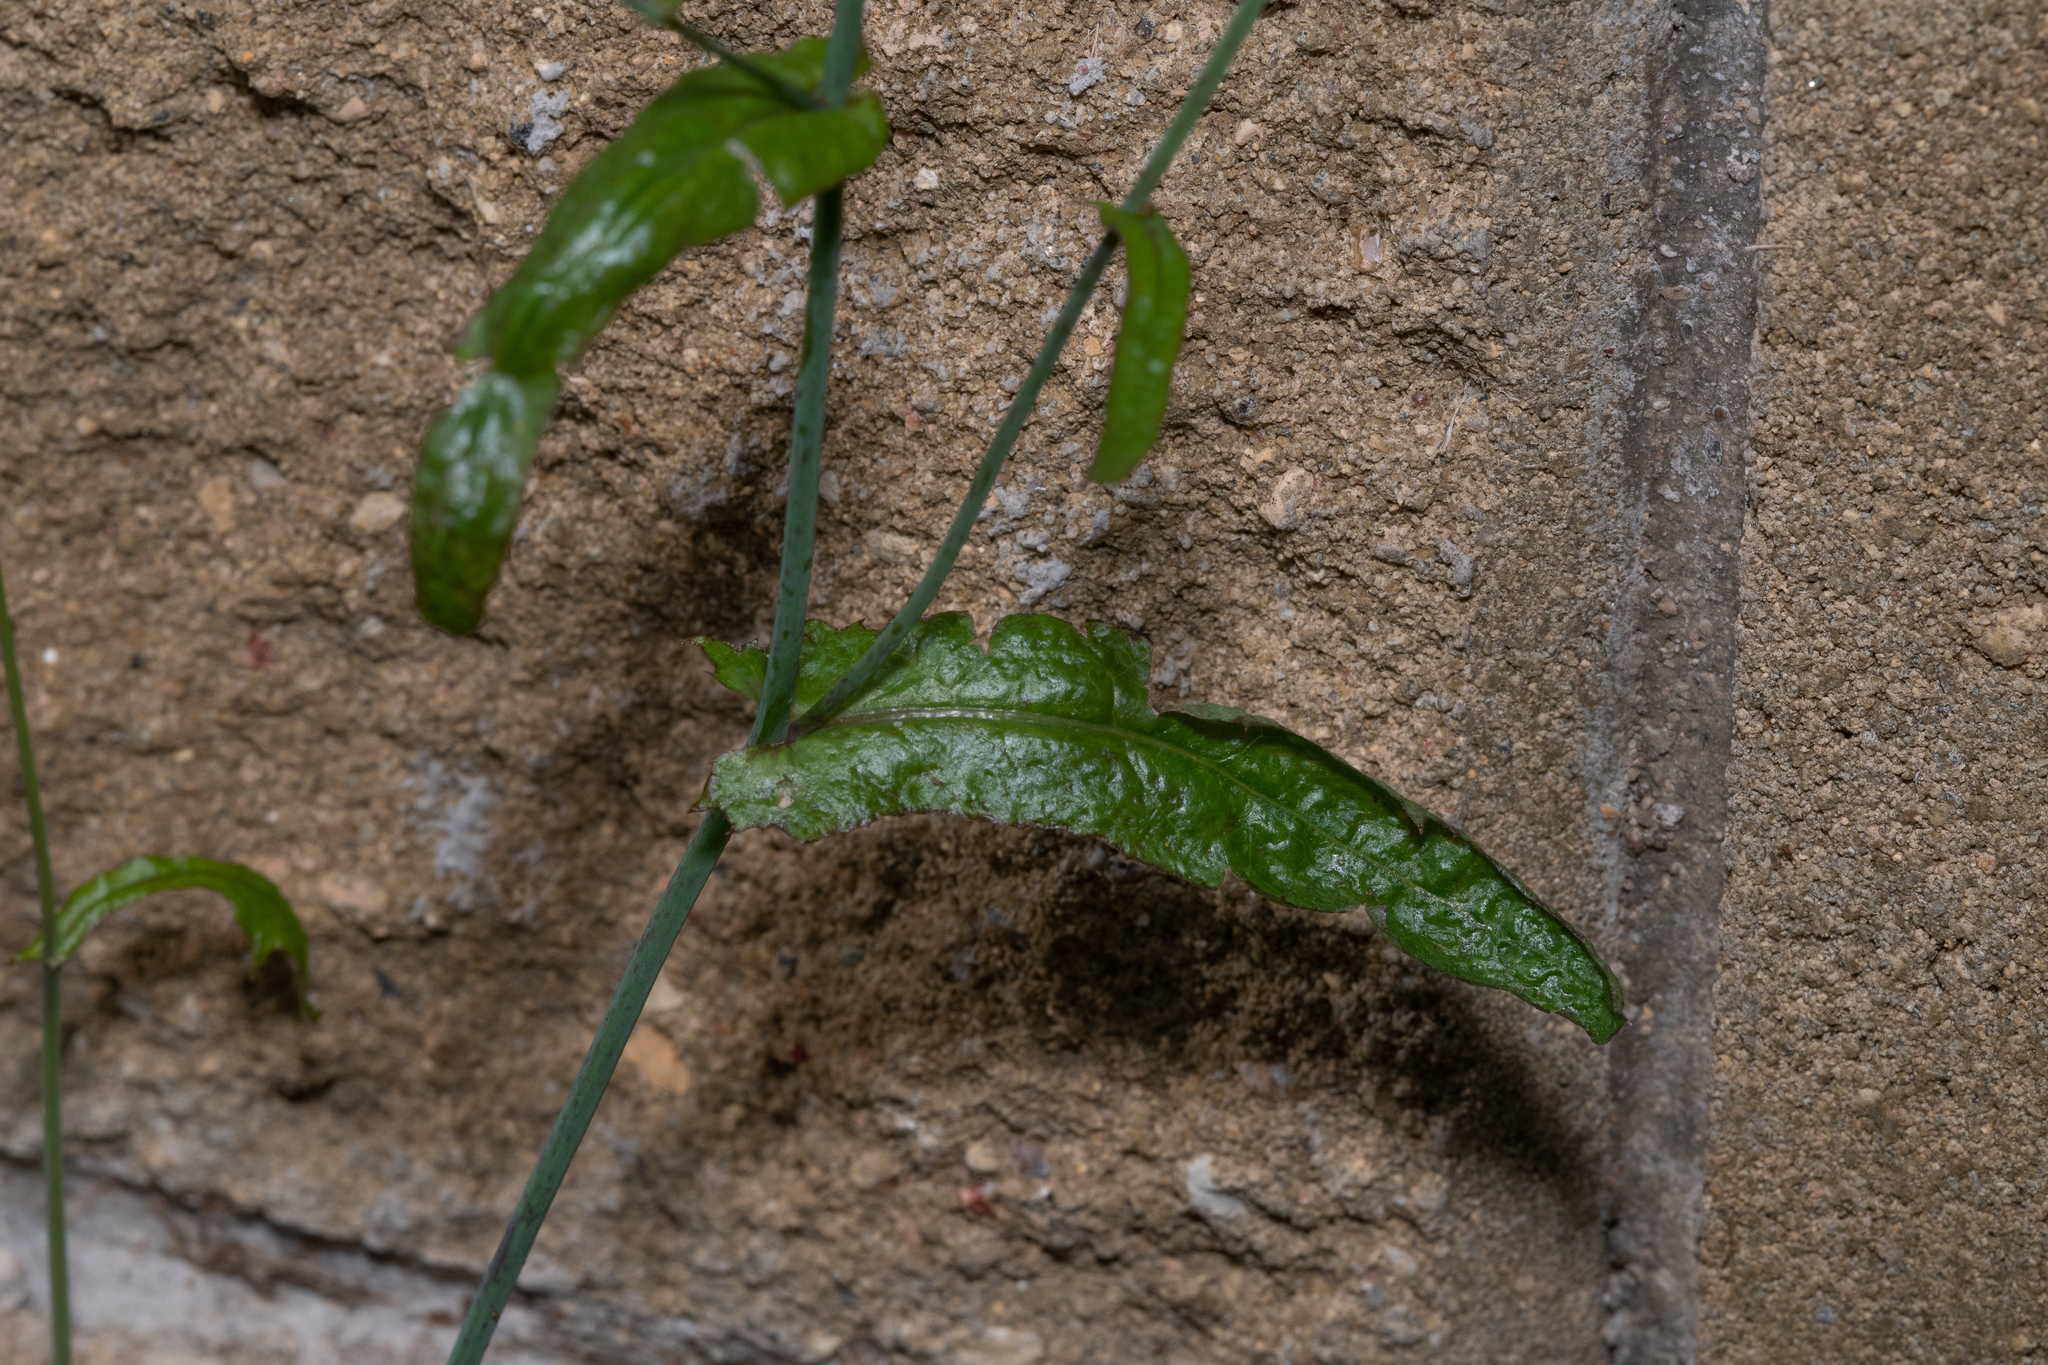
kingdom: Plantae
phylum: Tracheophyta
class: Magnoliopsida
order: Asterales
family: Asteraceae
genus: Mycelis
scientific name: Mycelis muralis
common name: Wall lettuce
